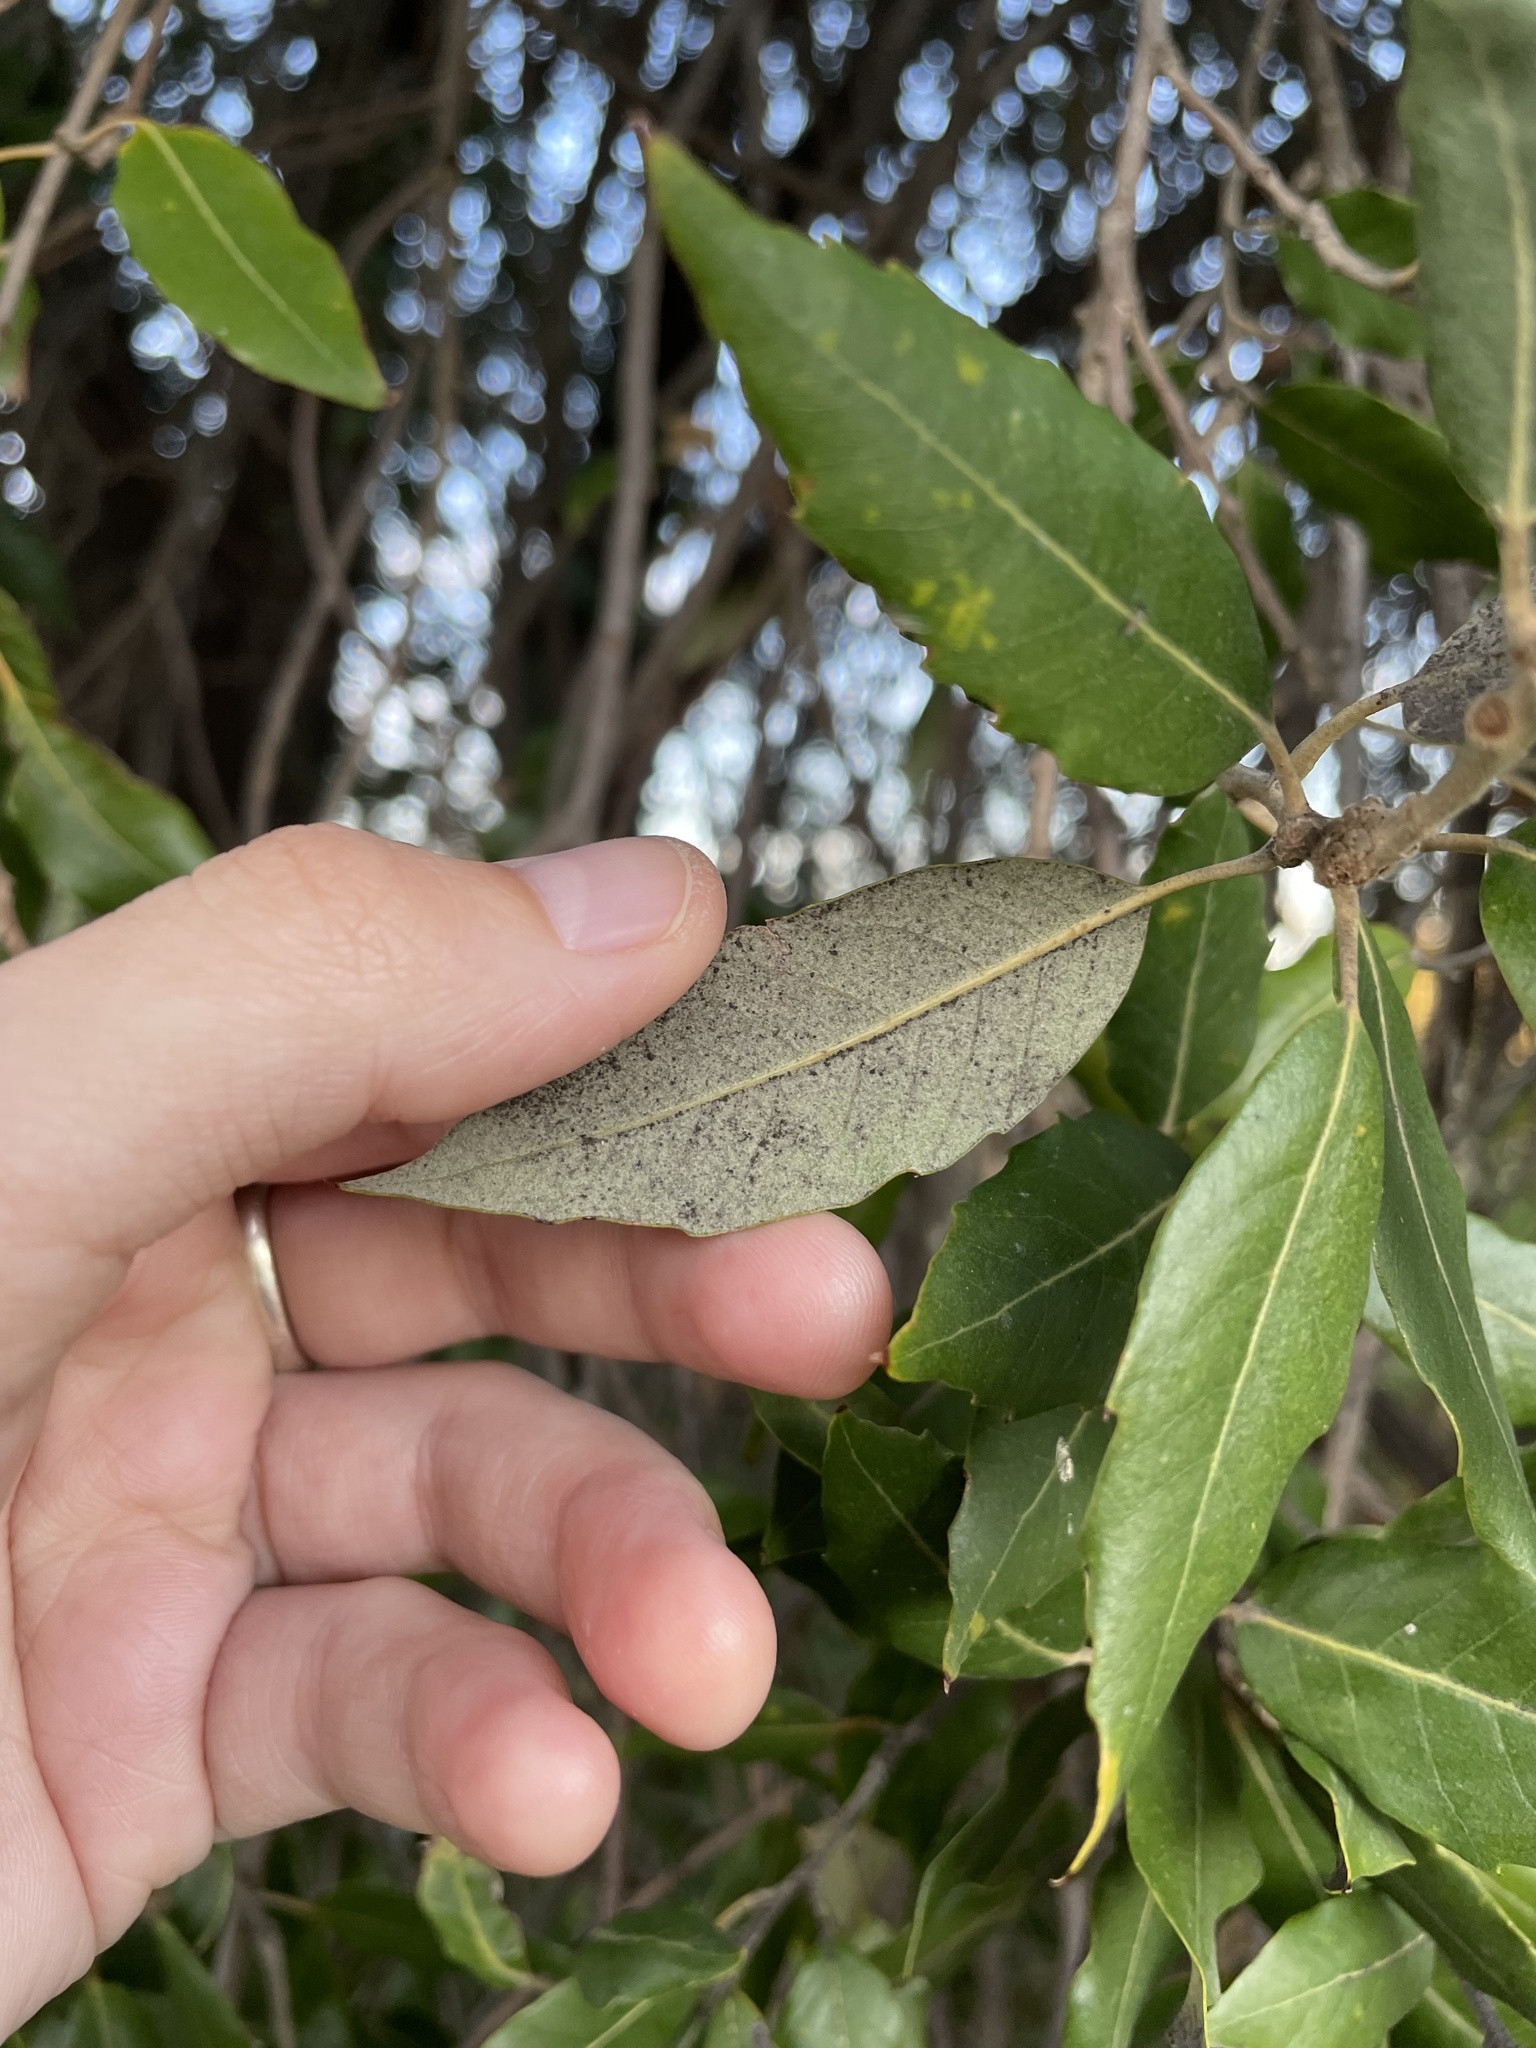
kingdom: Plantae
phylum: Tracheophyta
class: Magnoliopsida
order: Fagales
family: Fagaceae
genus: Quercus
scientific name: Quercus ilex
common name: Evergreen oak
